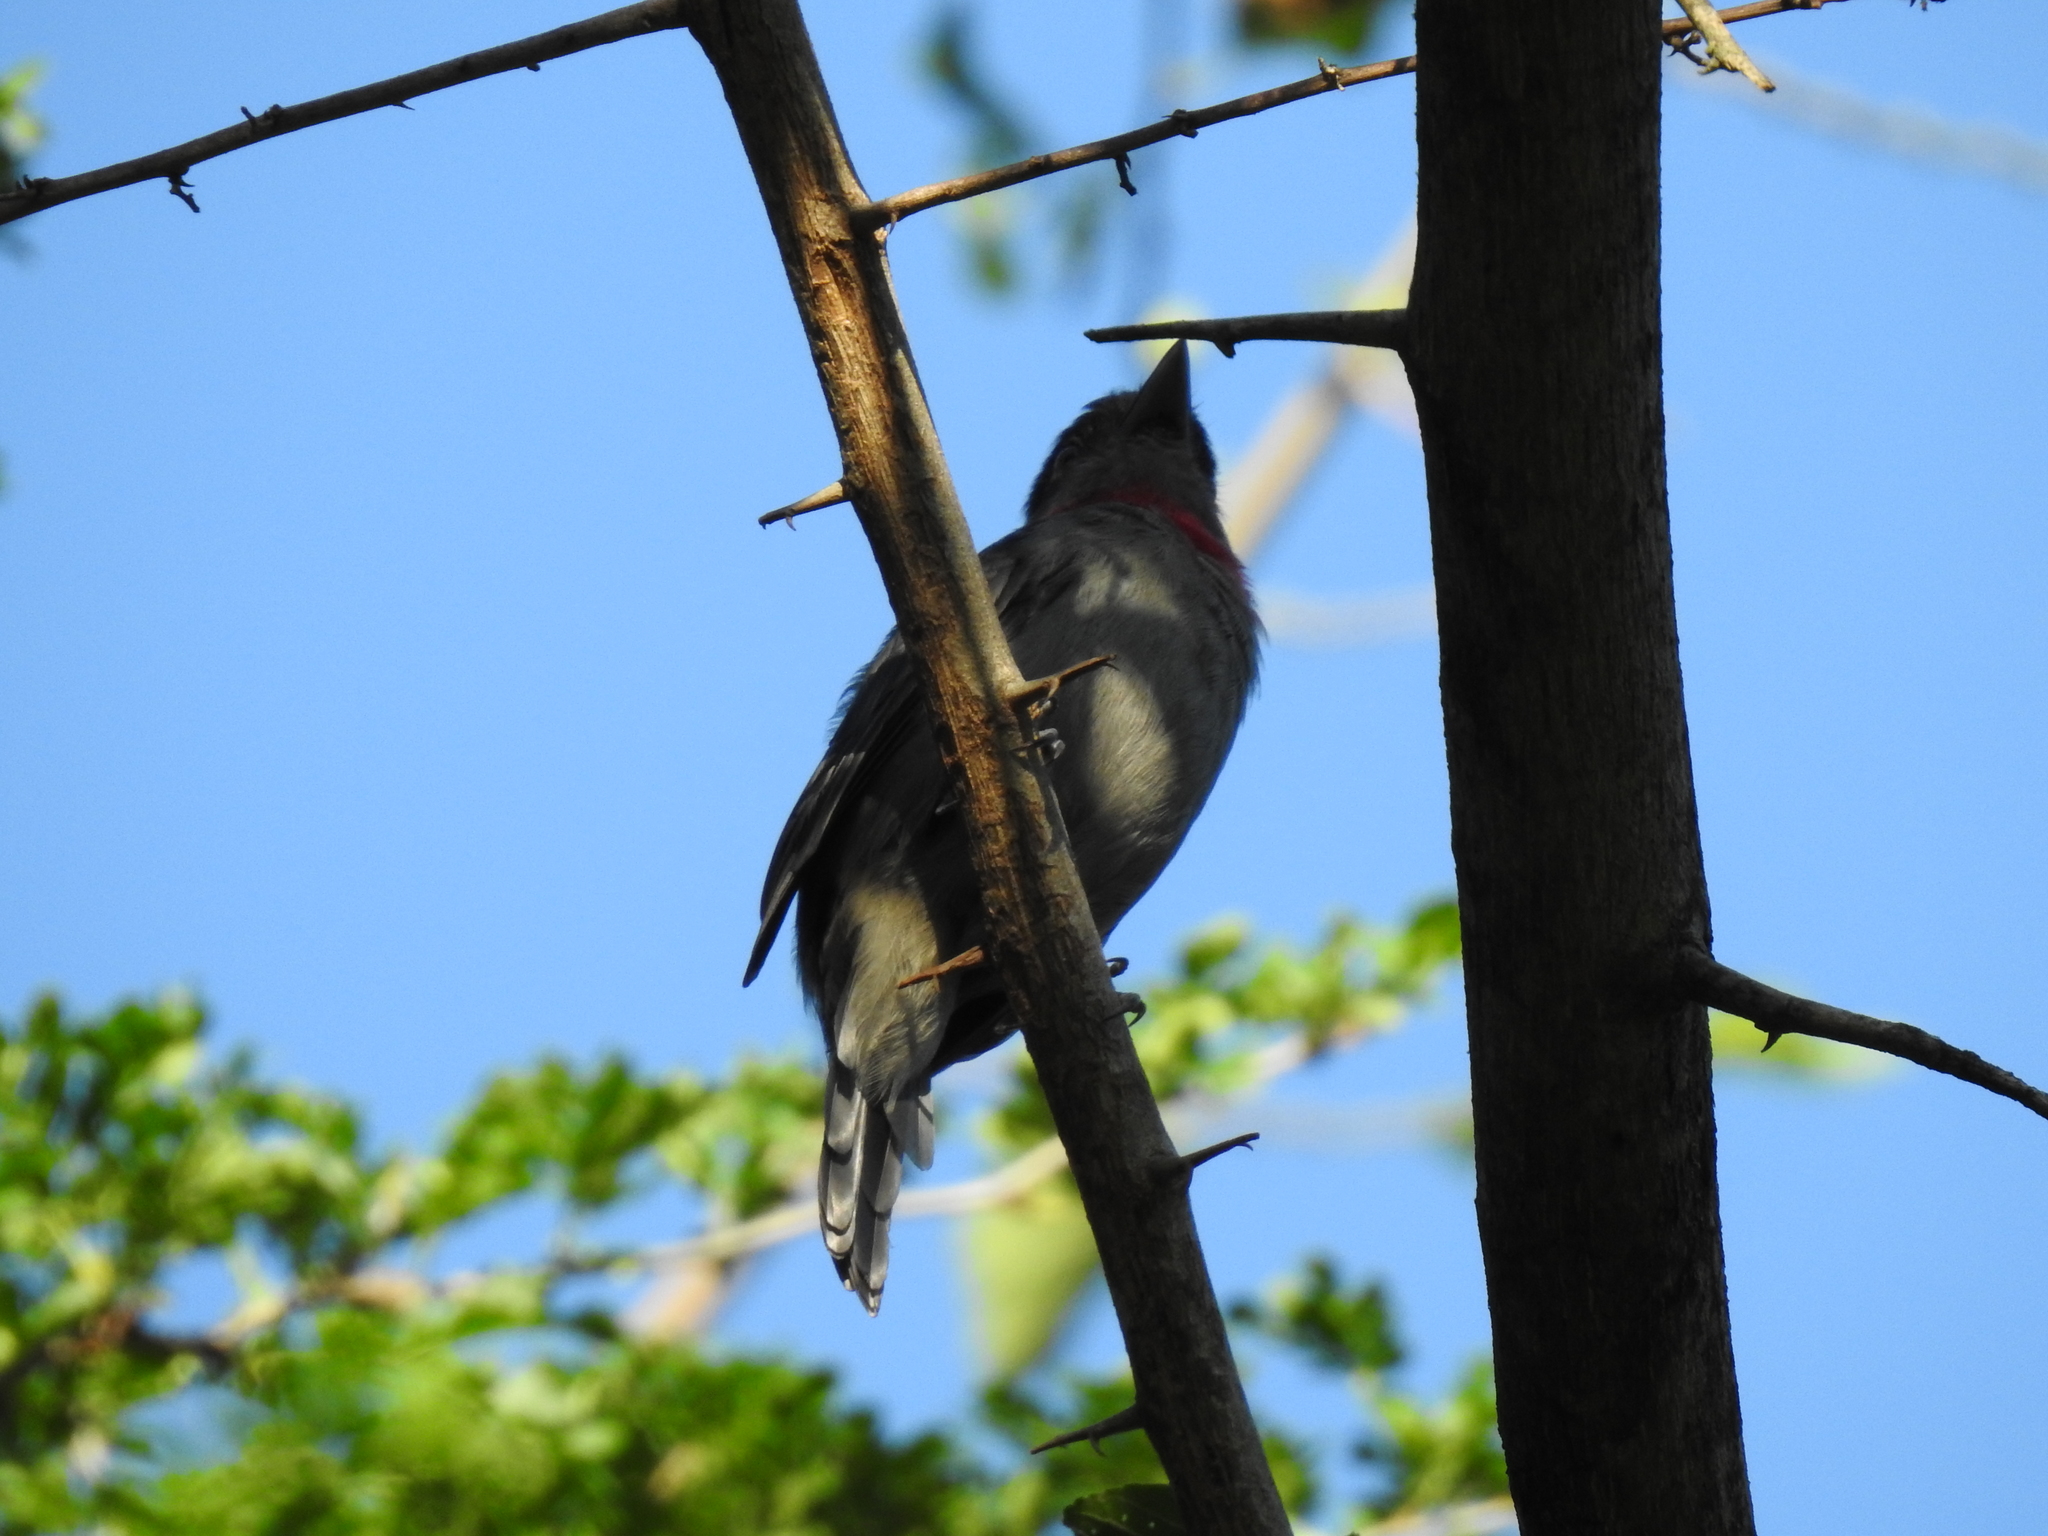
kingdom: Animalia
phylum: Chordata
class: Aves
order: Passeriformes
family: Cotingidae
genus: Pachyramphus
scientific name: Pachyramphus aglaiae
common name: Rose-throated becard
